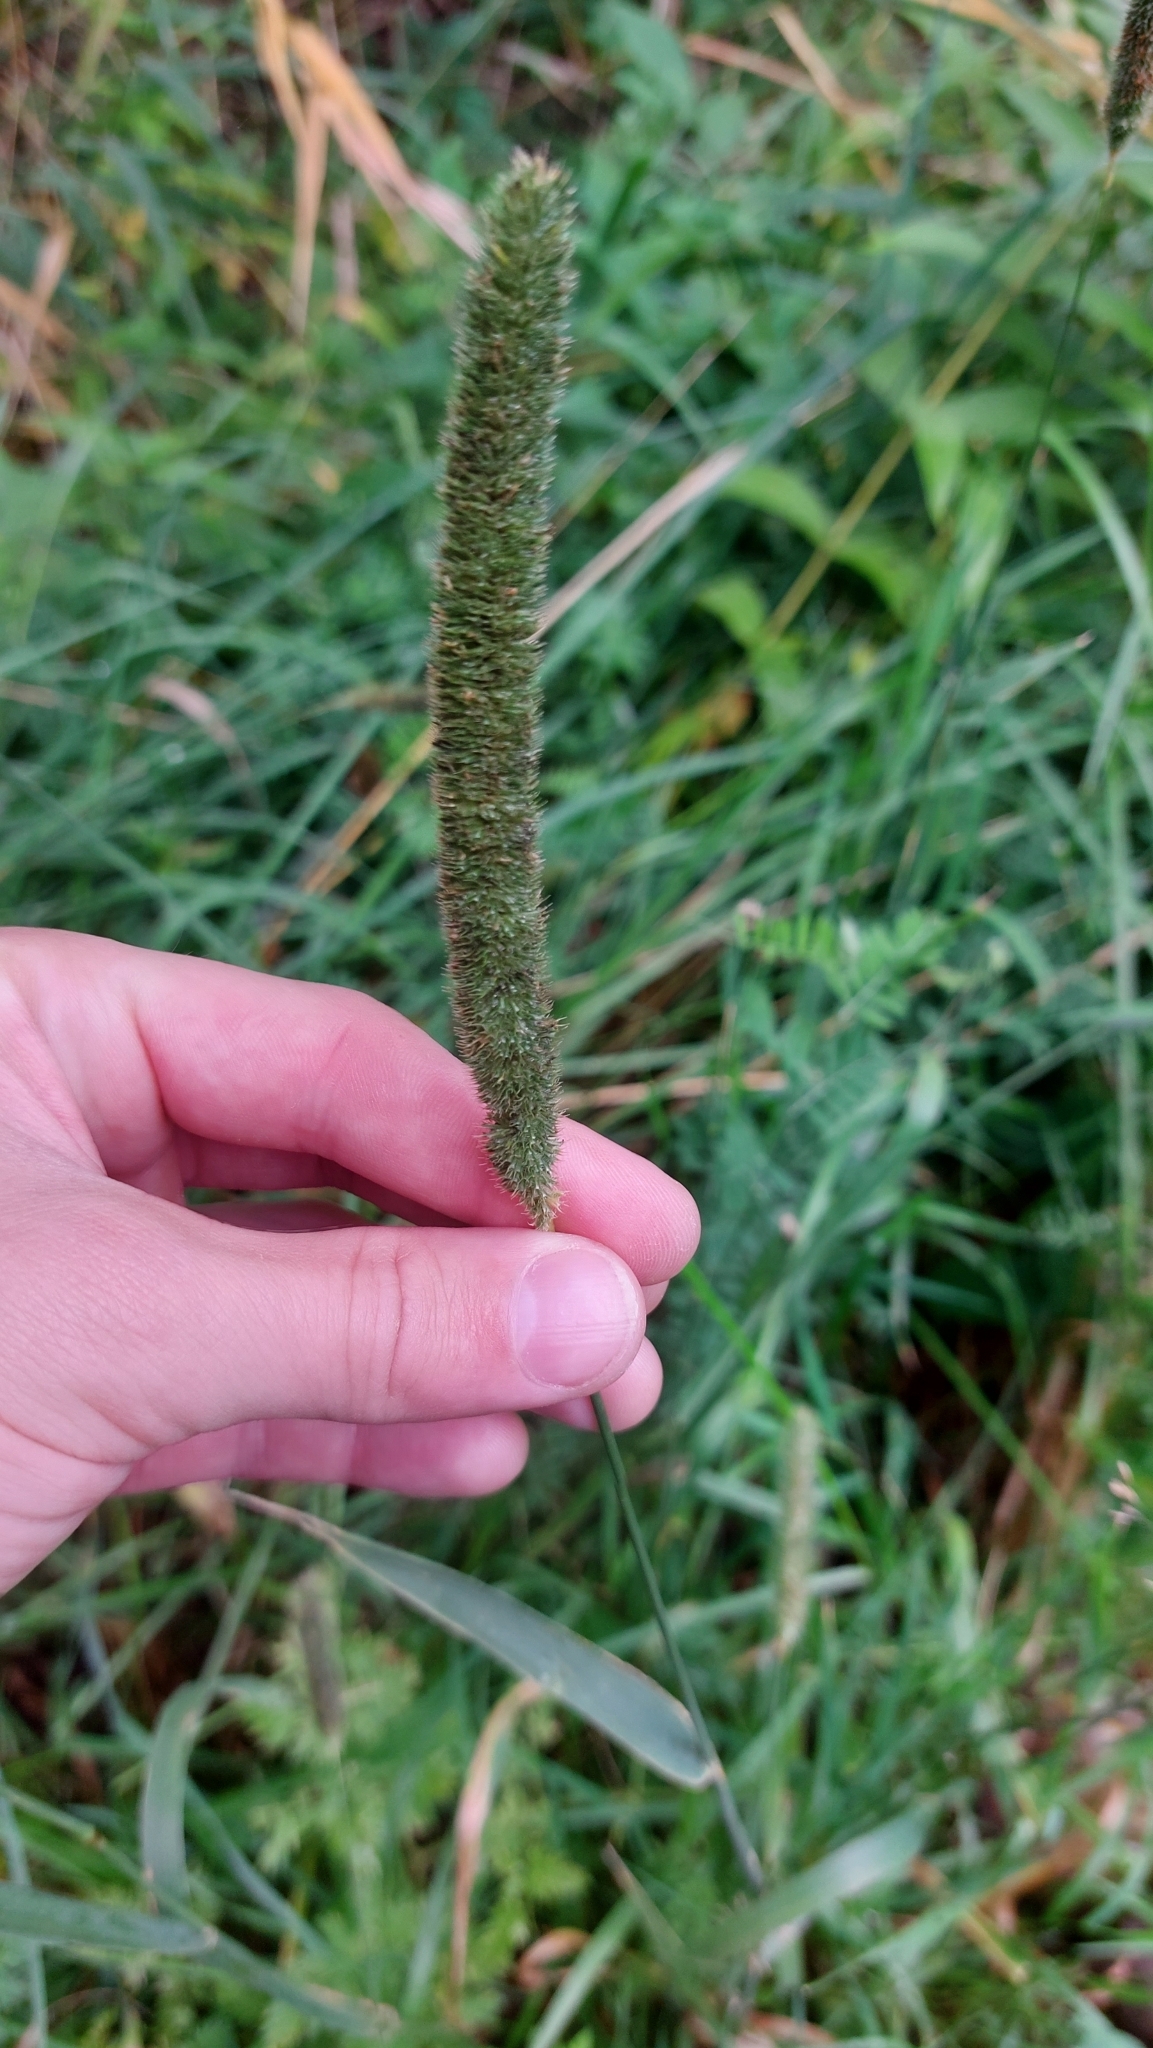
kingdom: Plantae
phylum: Tracheophyta
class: Liliopsida
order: Poales
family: Poaceae
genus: Phleum
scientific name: Phleum pratense
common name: Timothy grass
